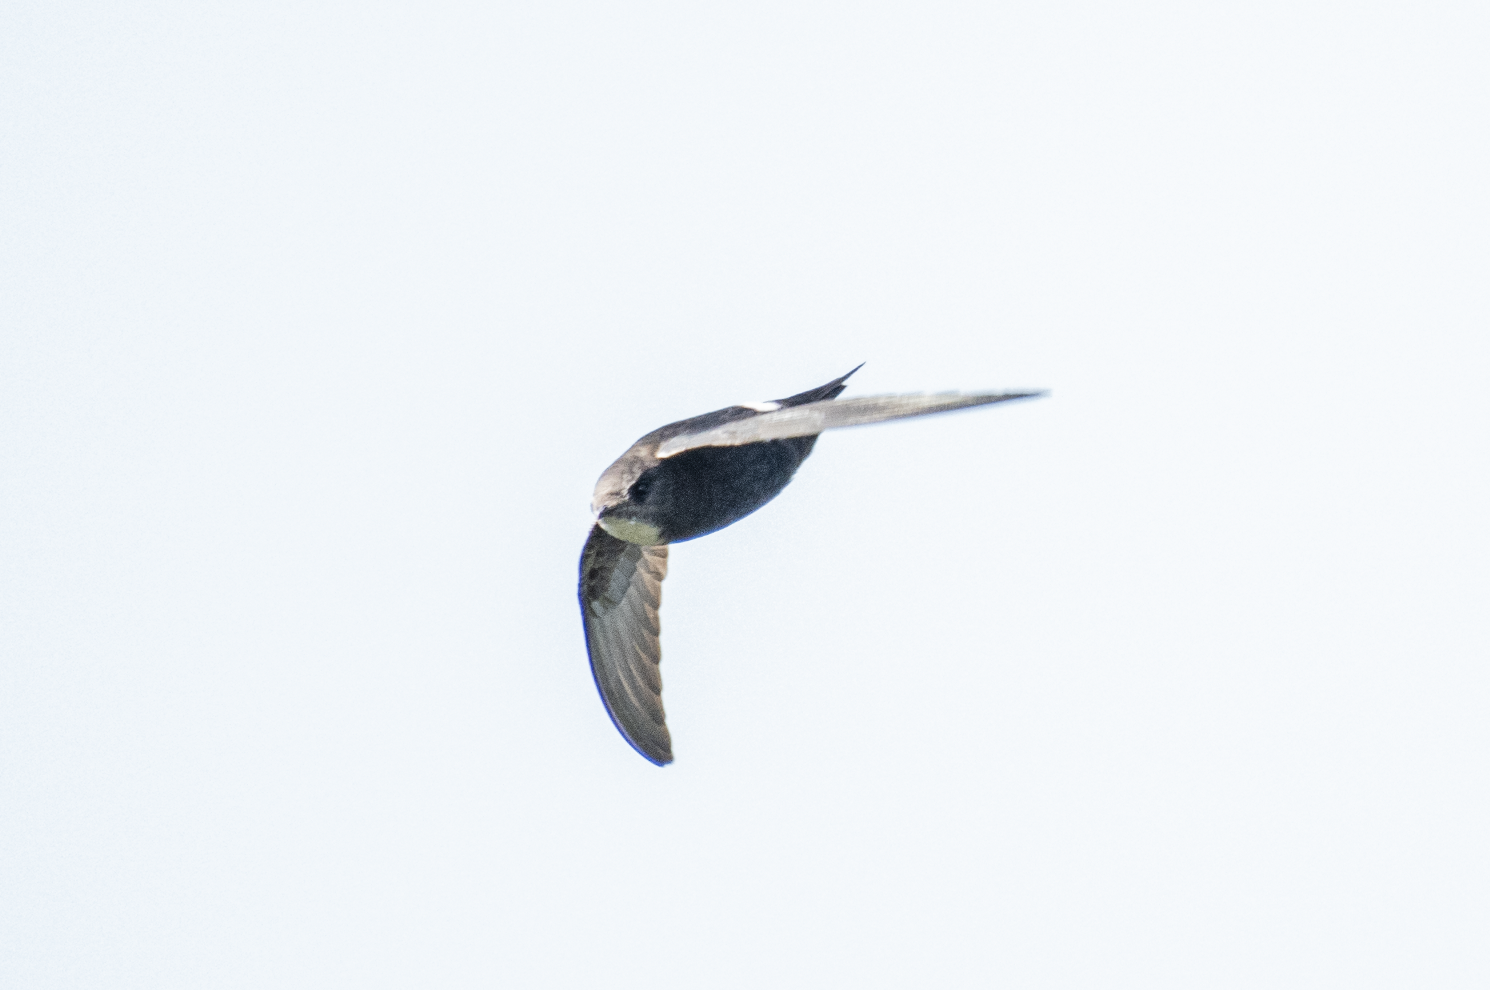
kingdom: Animalia
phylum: Chordata
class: Aves
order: Apodiformes
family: Apodidae
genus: Apus
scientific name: Apus nipalensis
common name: House swift
